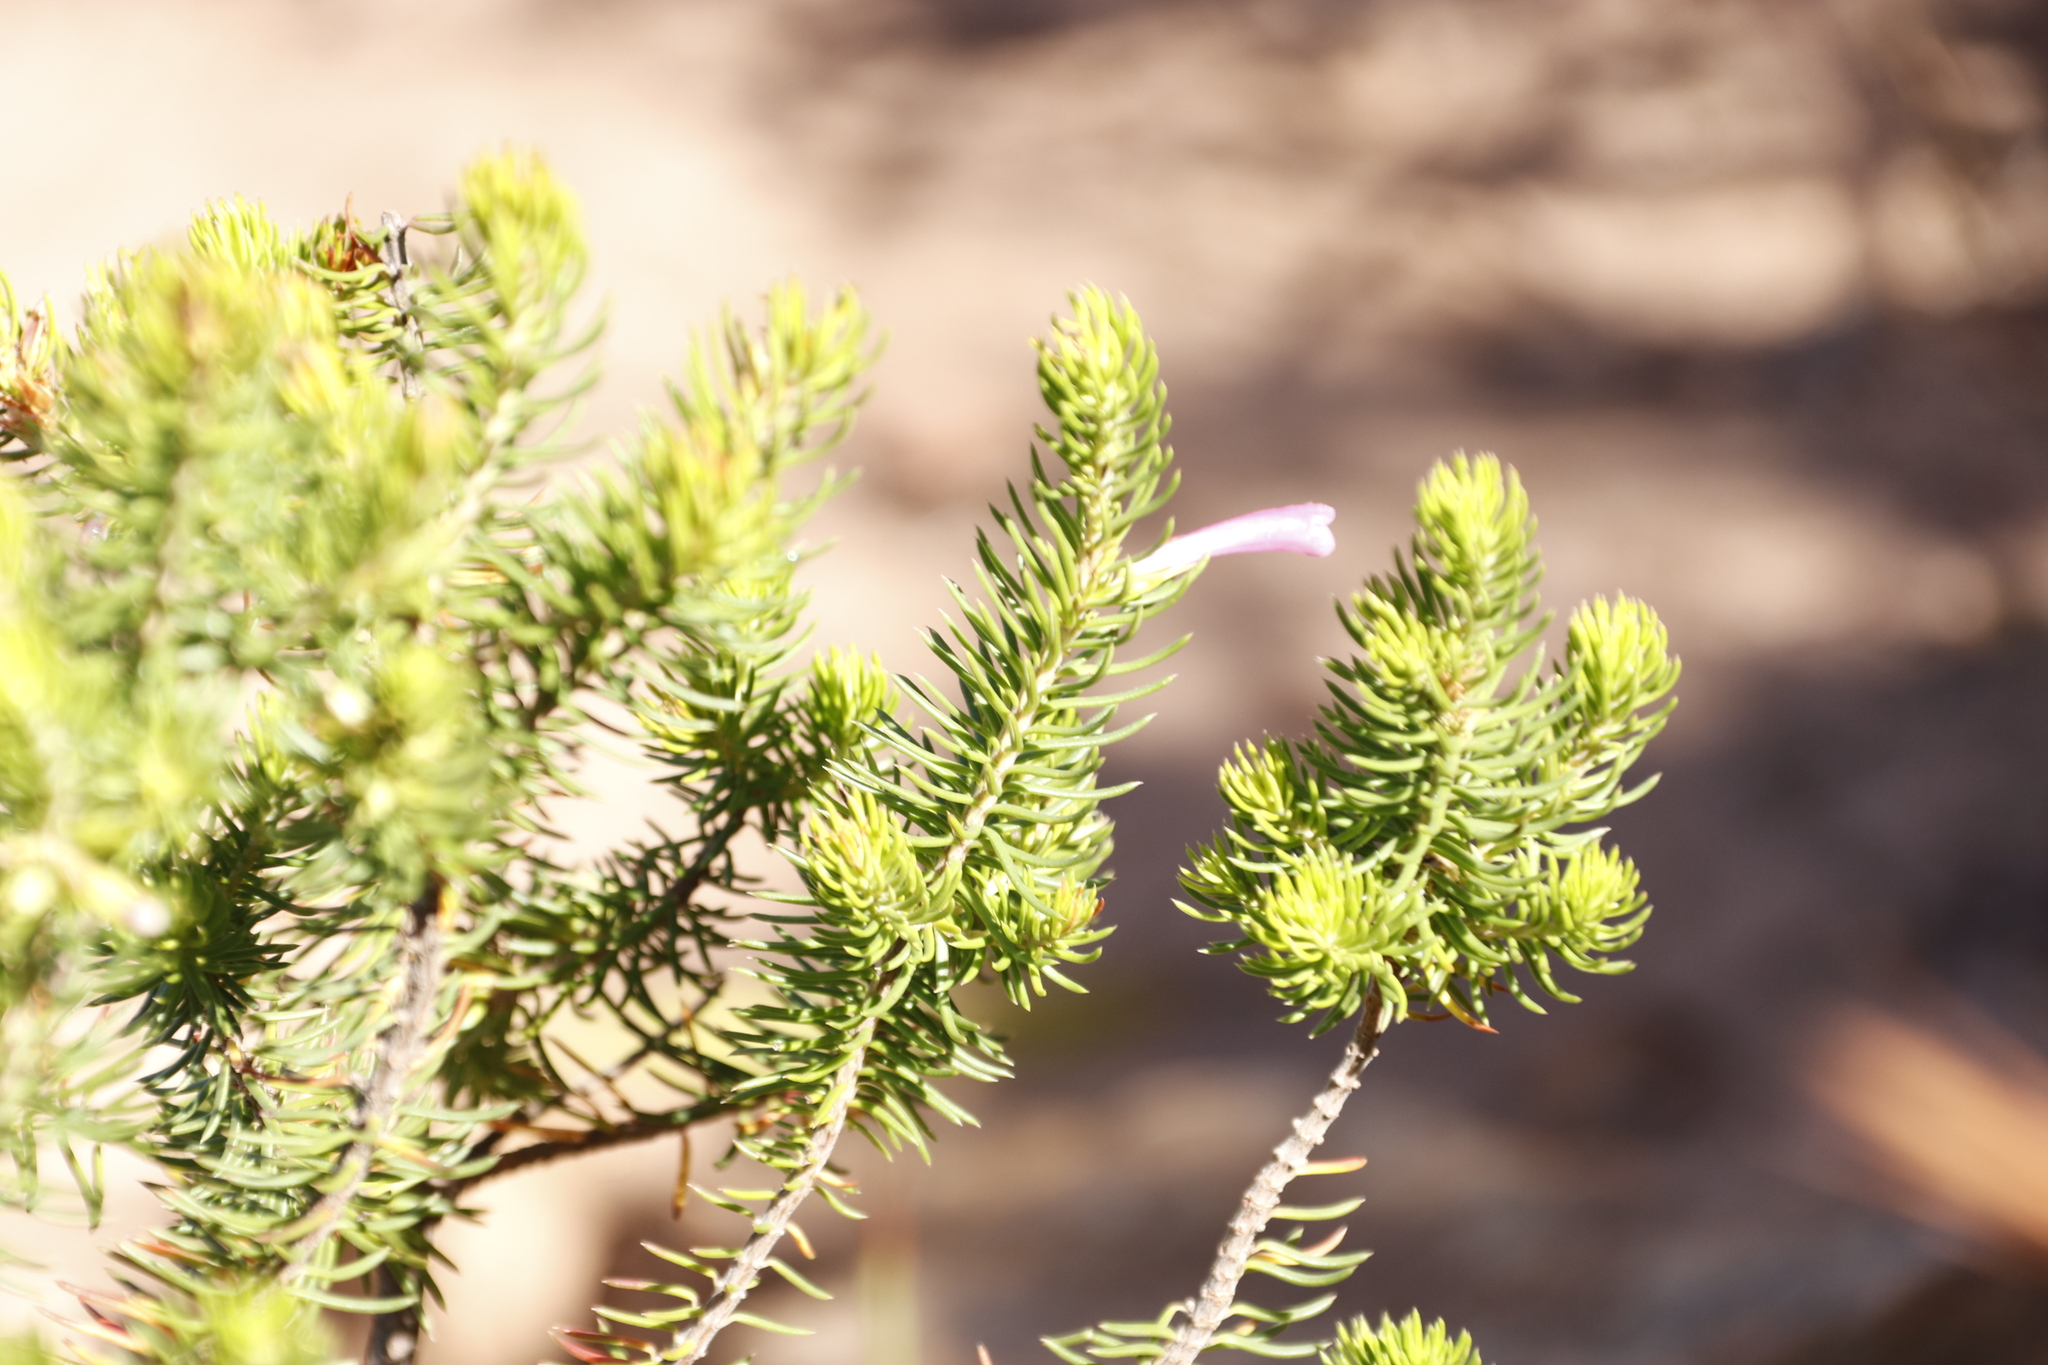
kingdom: Plantae
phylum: Tracheophyta
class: Magnoliopsida
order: Ericales
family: Ericaceae
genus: Erica
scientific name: Erica abietina
